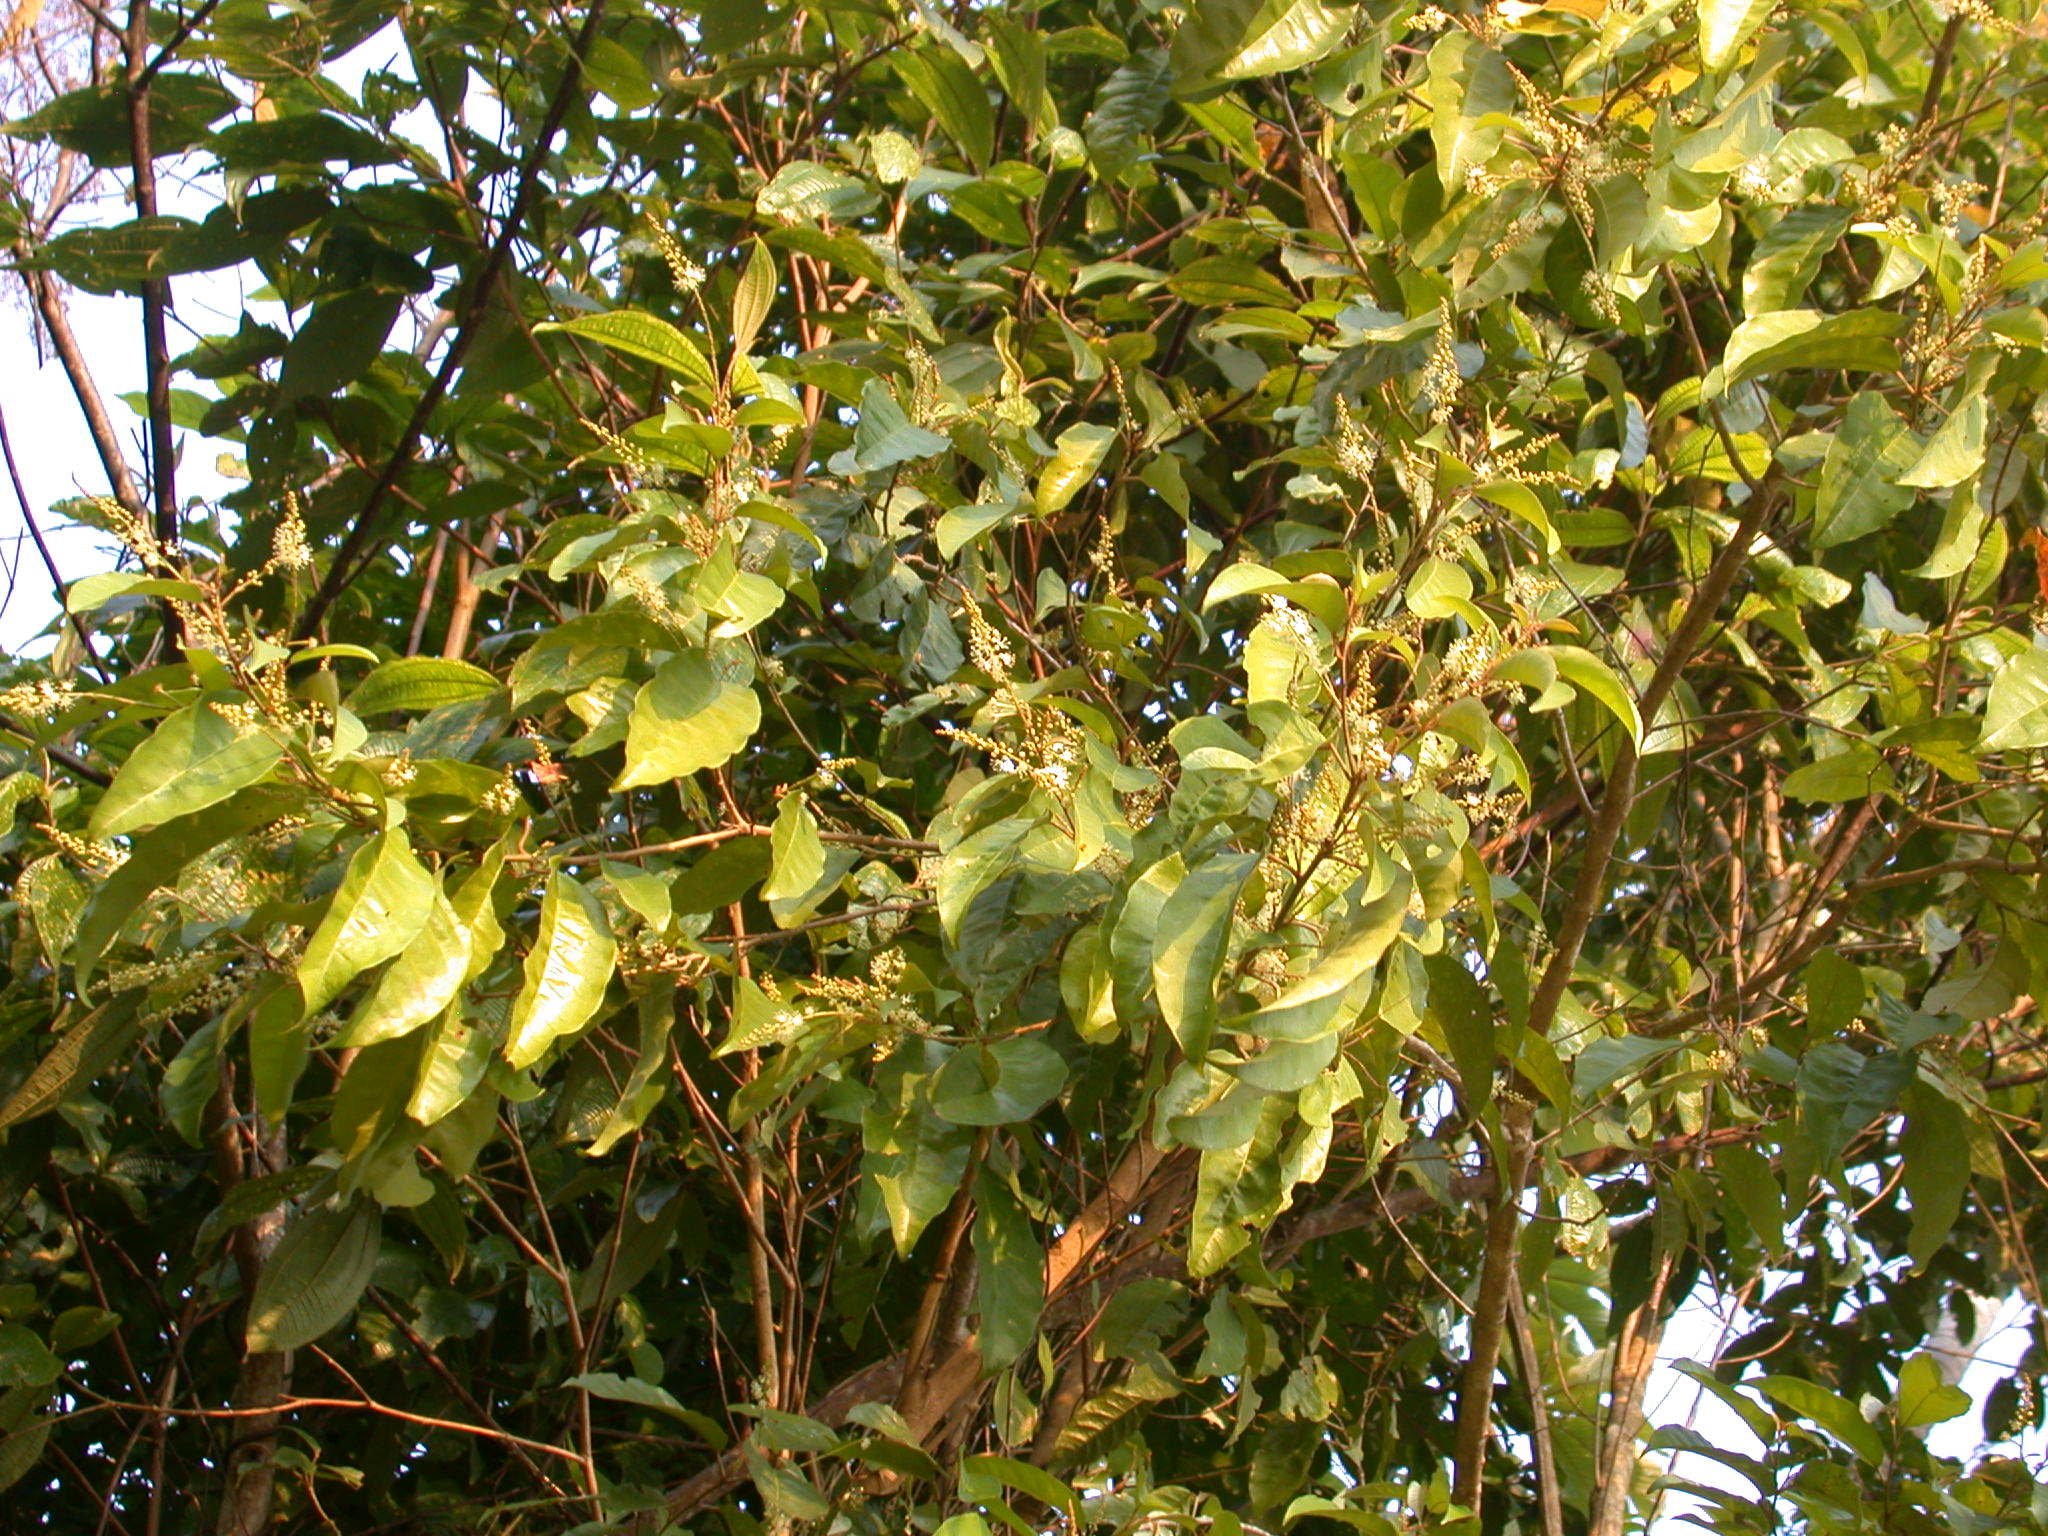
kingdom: Plantae
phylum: Tracheophyta
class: Magnoliopsida
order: Malpighiales
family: Euphorbiaceae
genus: Croton
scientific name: Croton schiedeanus
